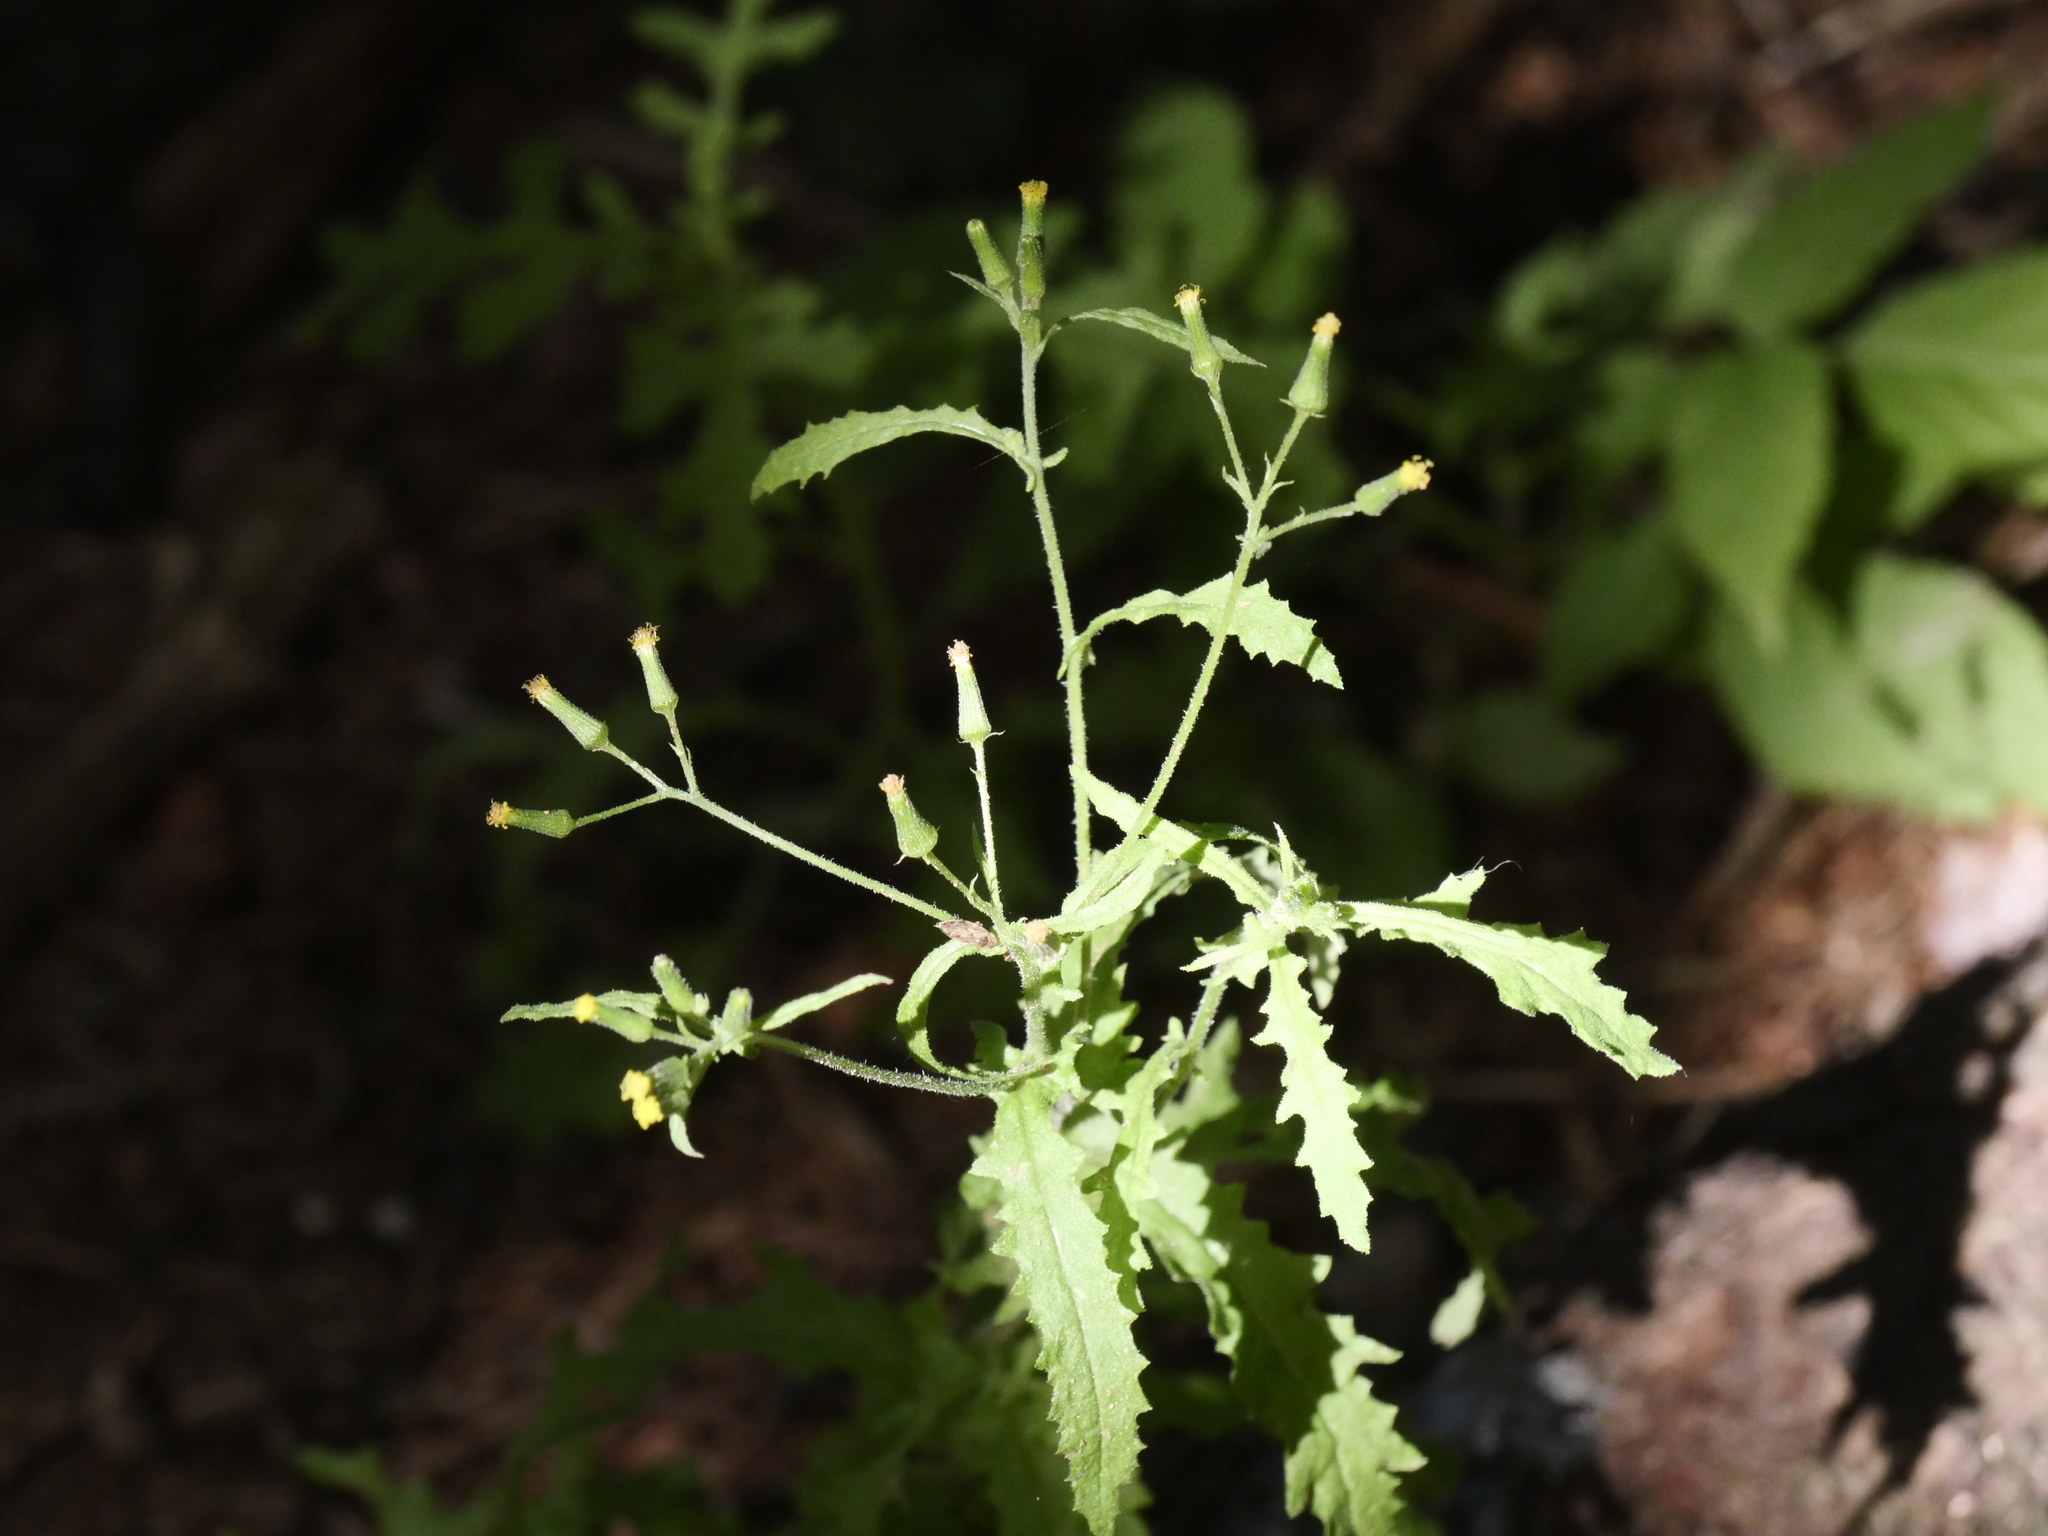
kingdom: Plantae
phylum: Tracheophyta
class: Magnoliopsida
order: Asterales
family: Asteraceae
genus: Senecio
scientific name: Senecio sylvaticus
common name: Woodland ragwort
